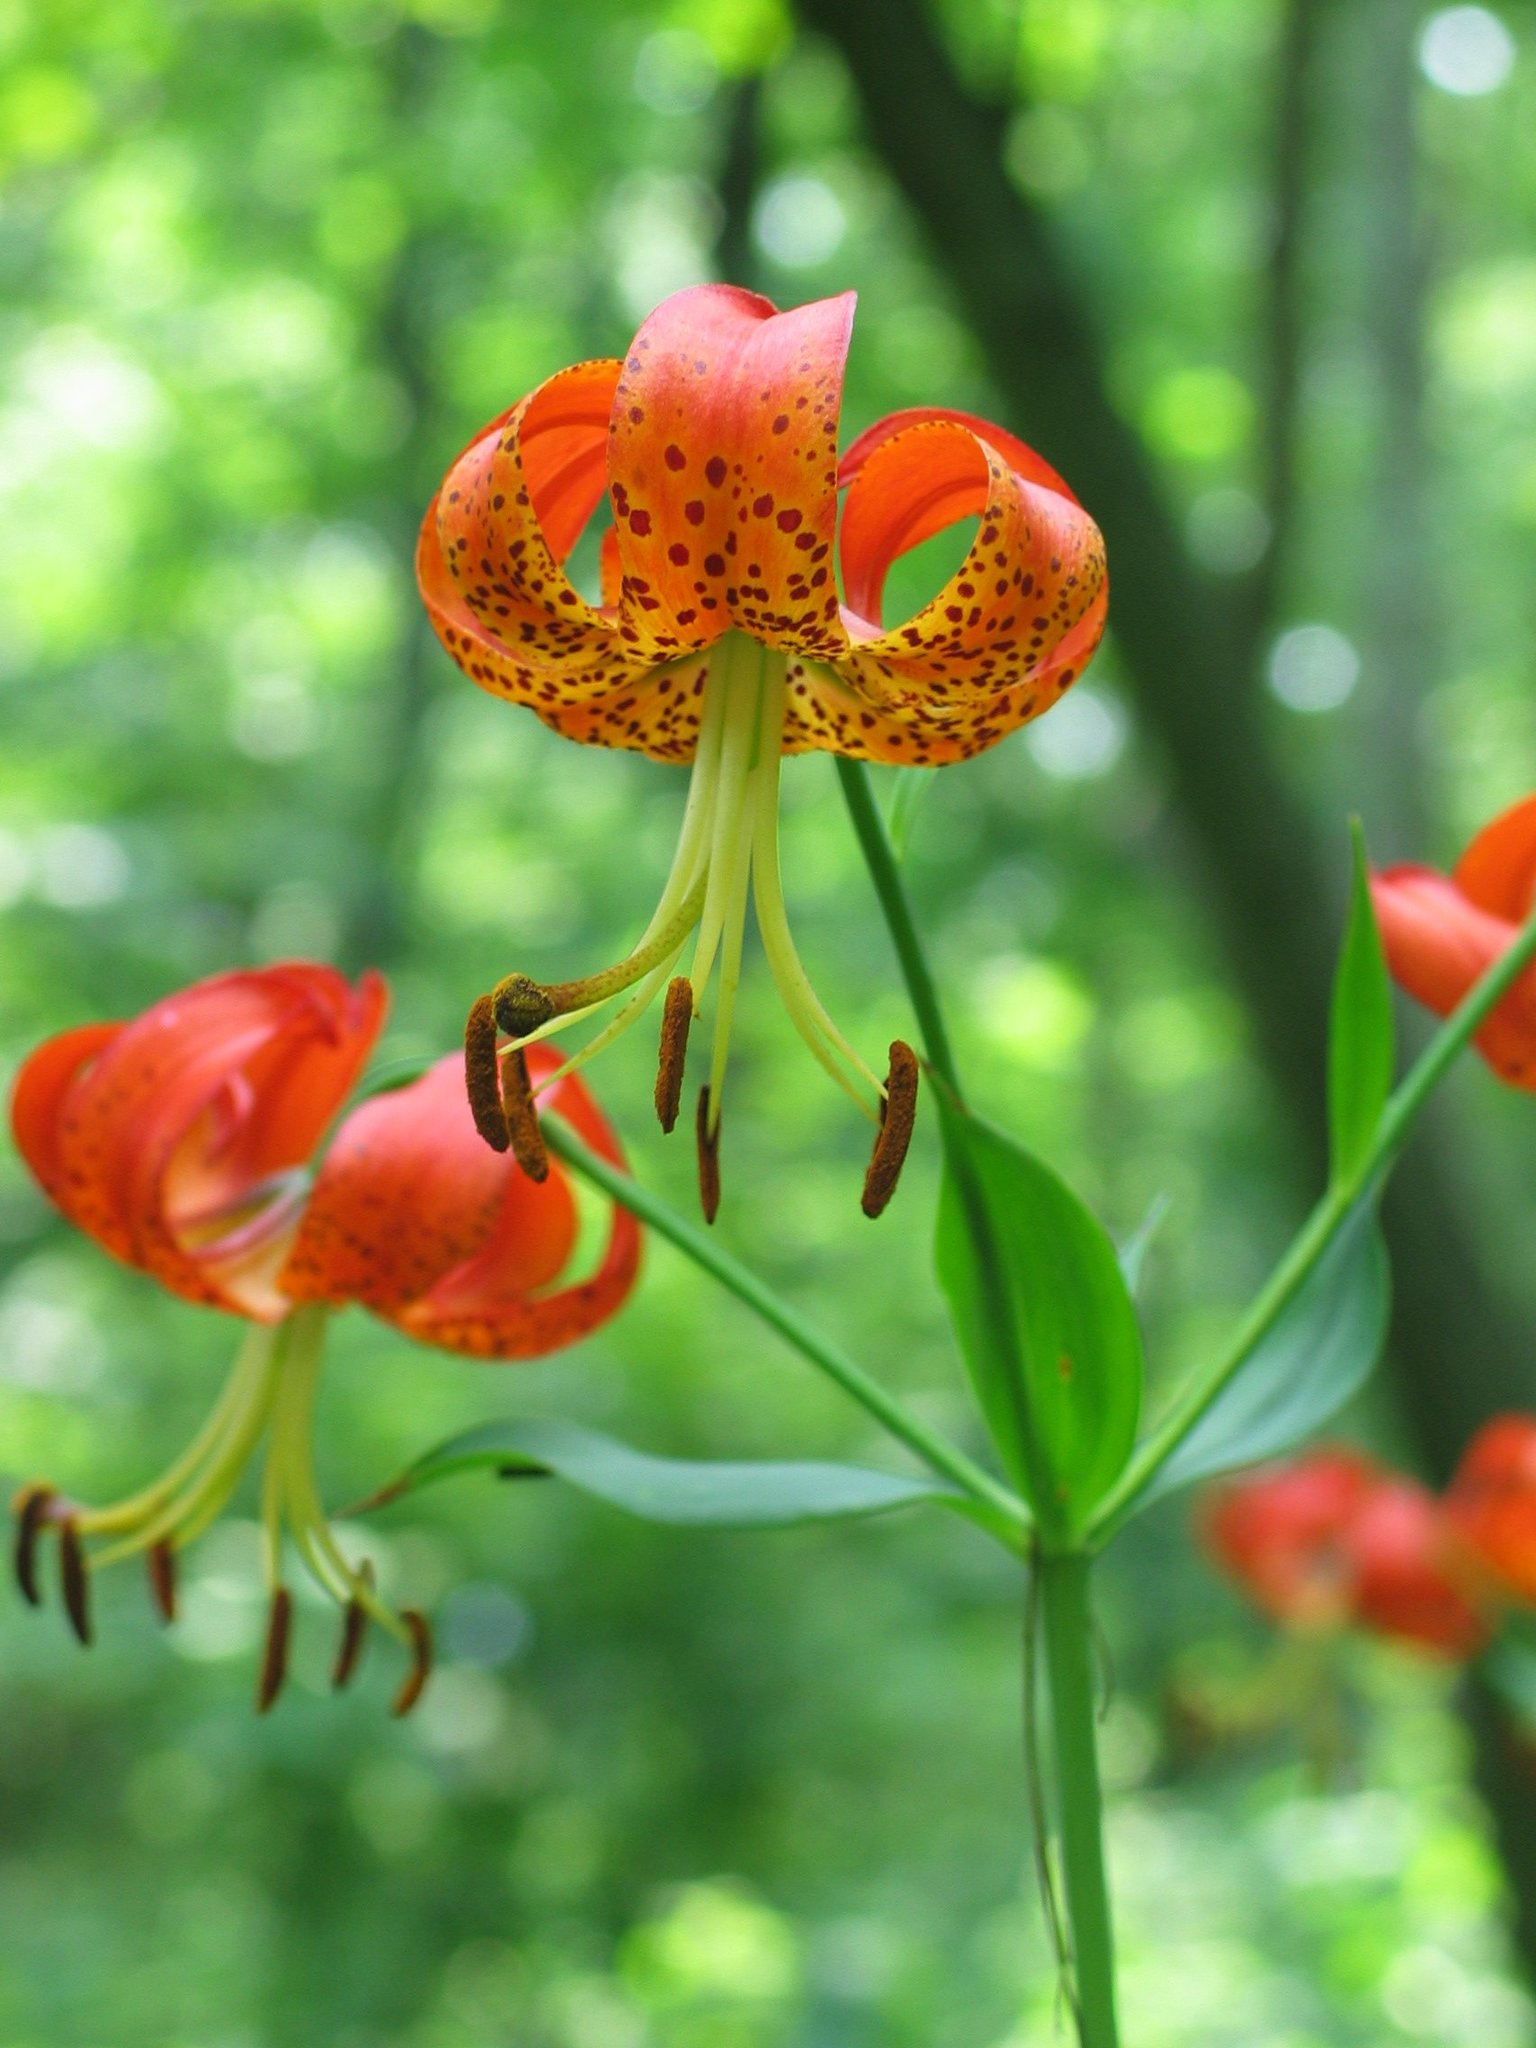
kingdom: Plantae
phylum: Tracheophyta
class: Liliopsida
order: Liliales
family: Liliaceae
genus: Lilium
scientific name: Lilium superbum
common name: American turk's-cap lily
